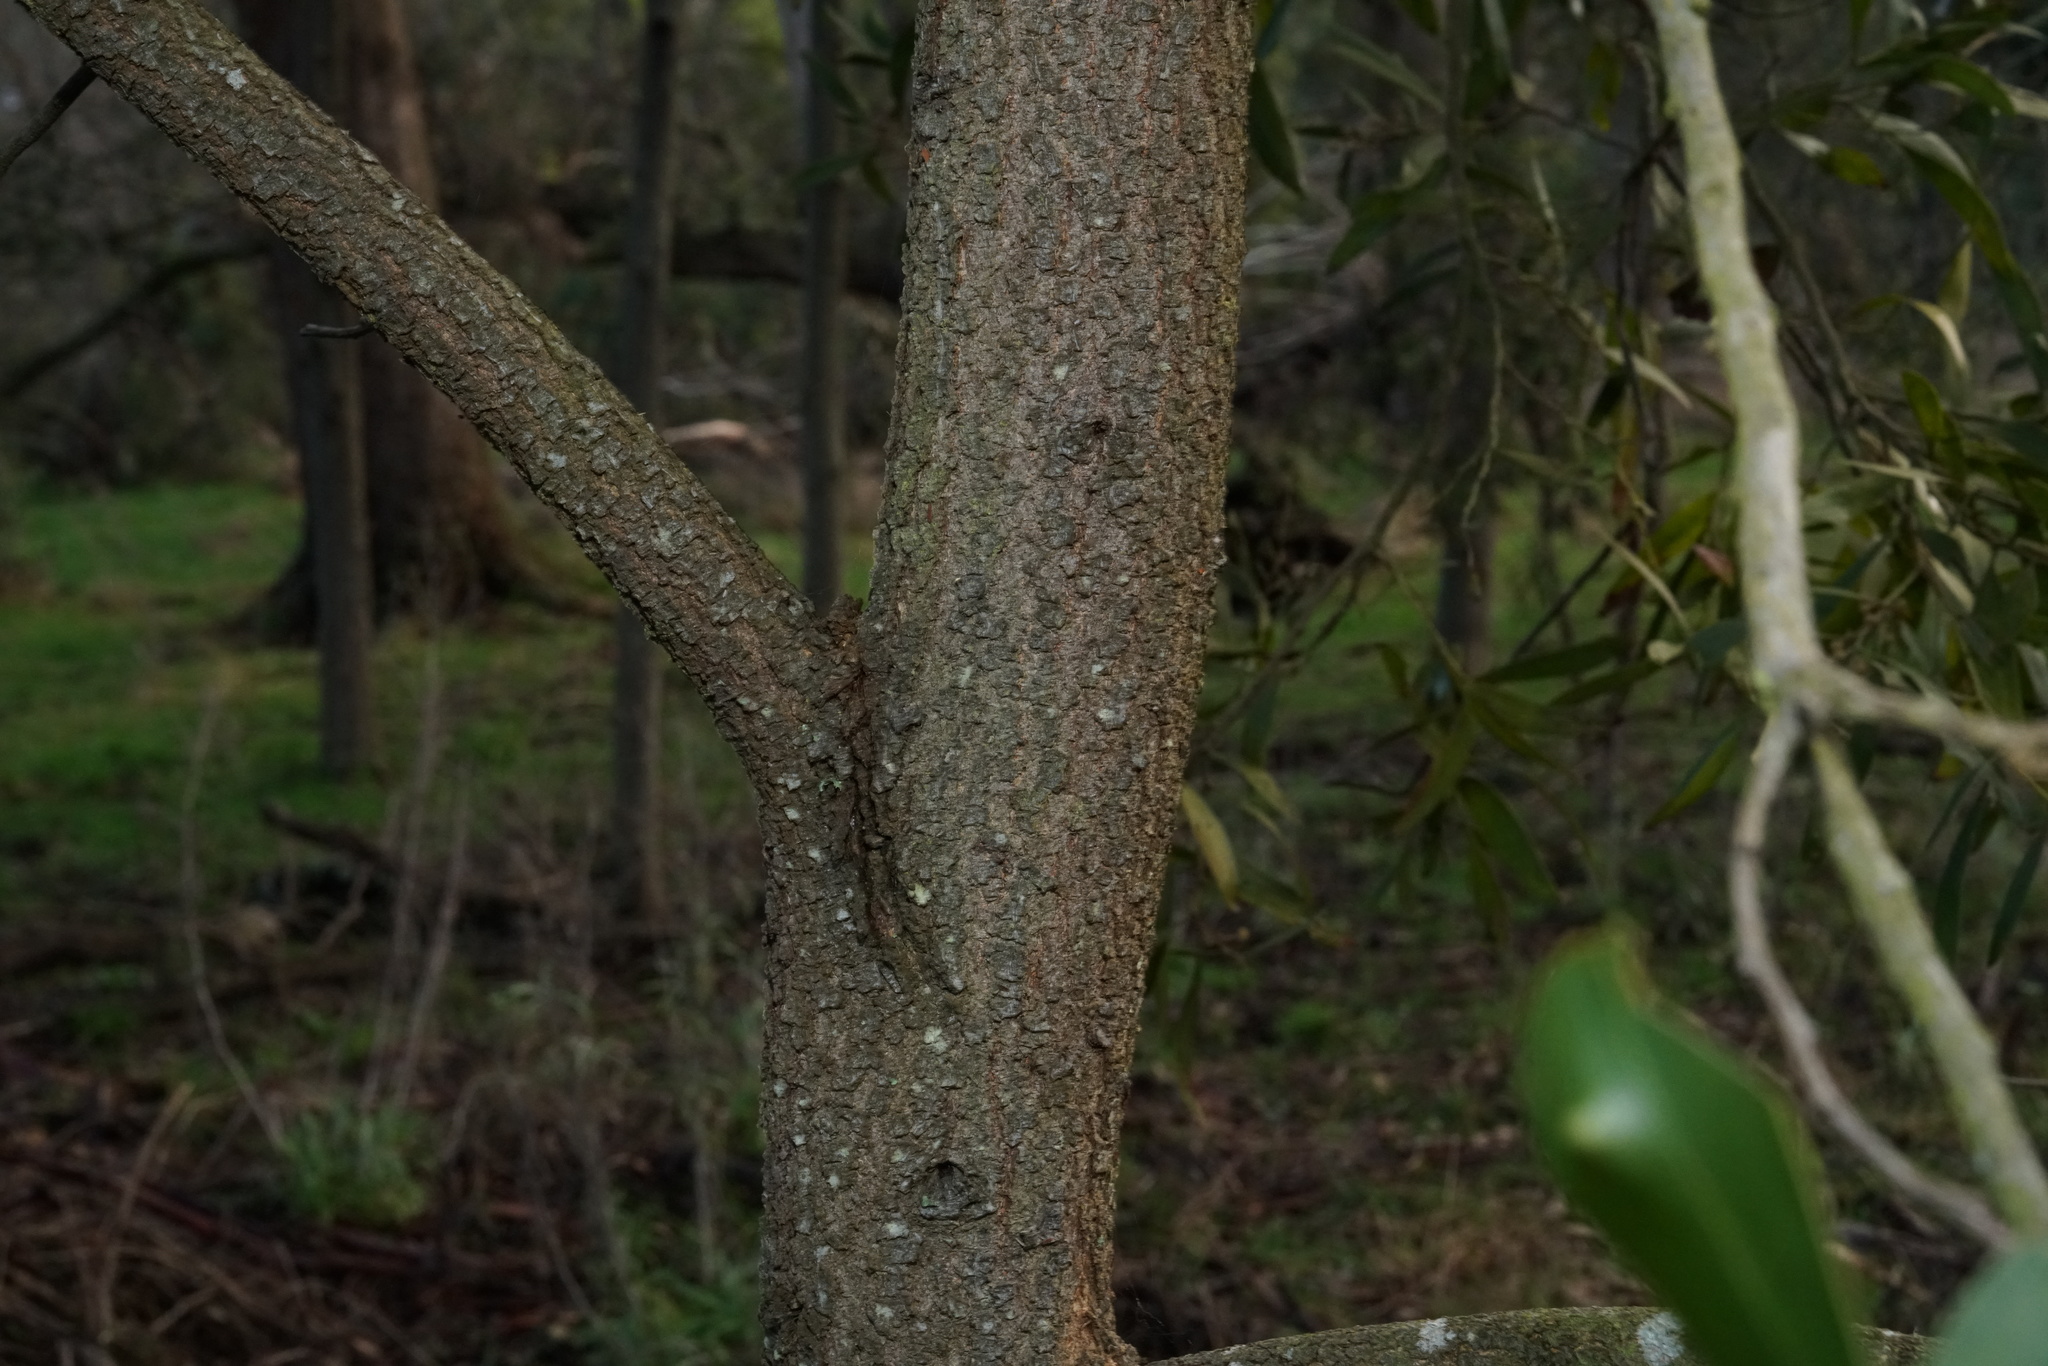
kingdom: Plantae
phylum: Tracheophyta
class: Magnoliopsida
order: Fabales
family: Fabaceae
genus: Acacia
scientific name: Acacia melanoxylon
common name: Blackwood
